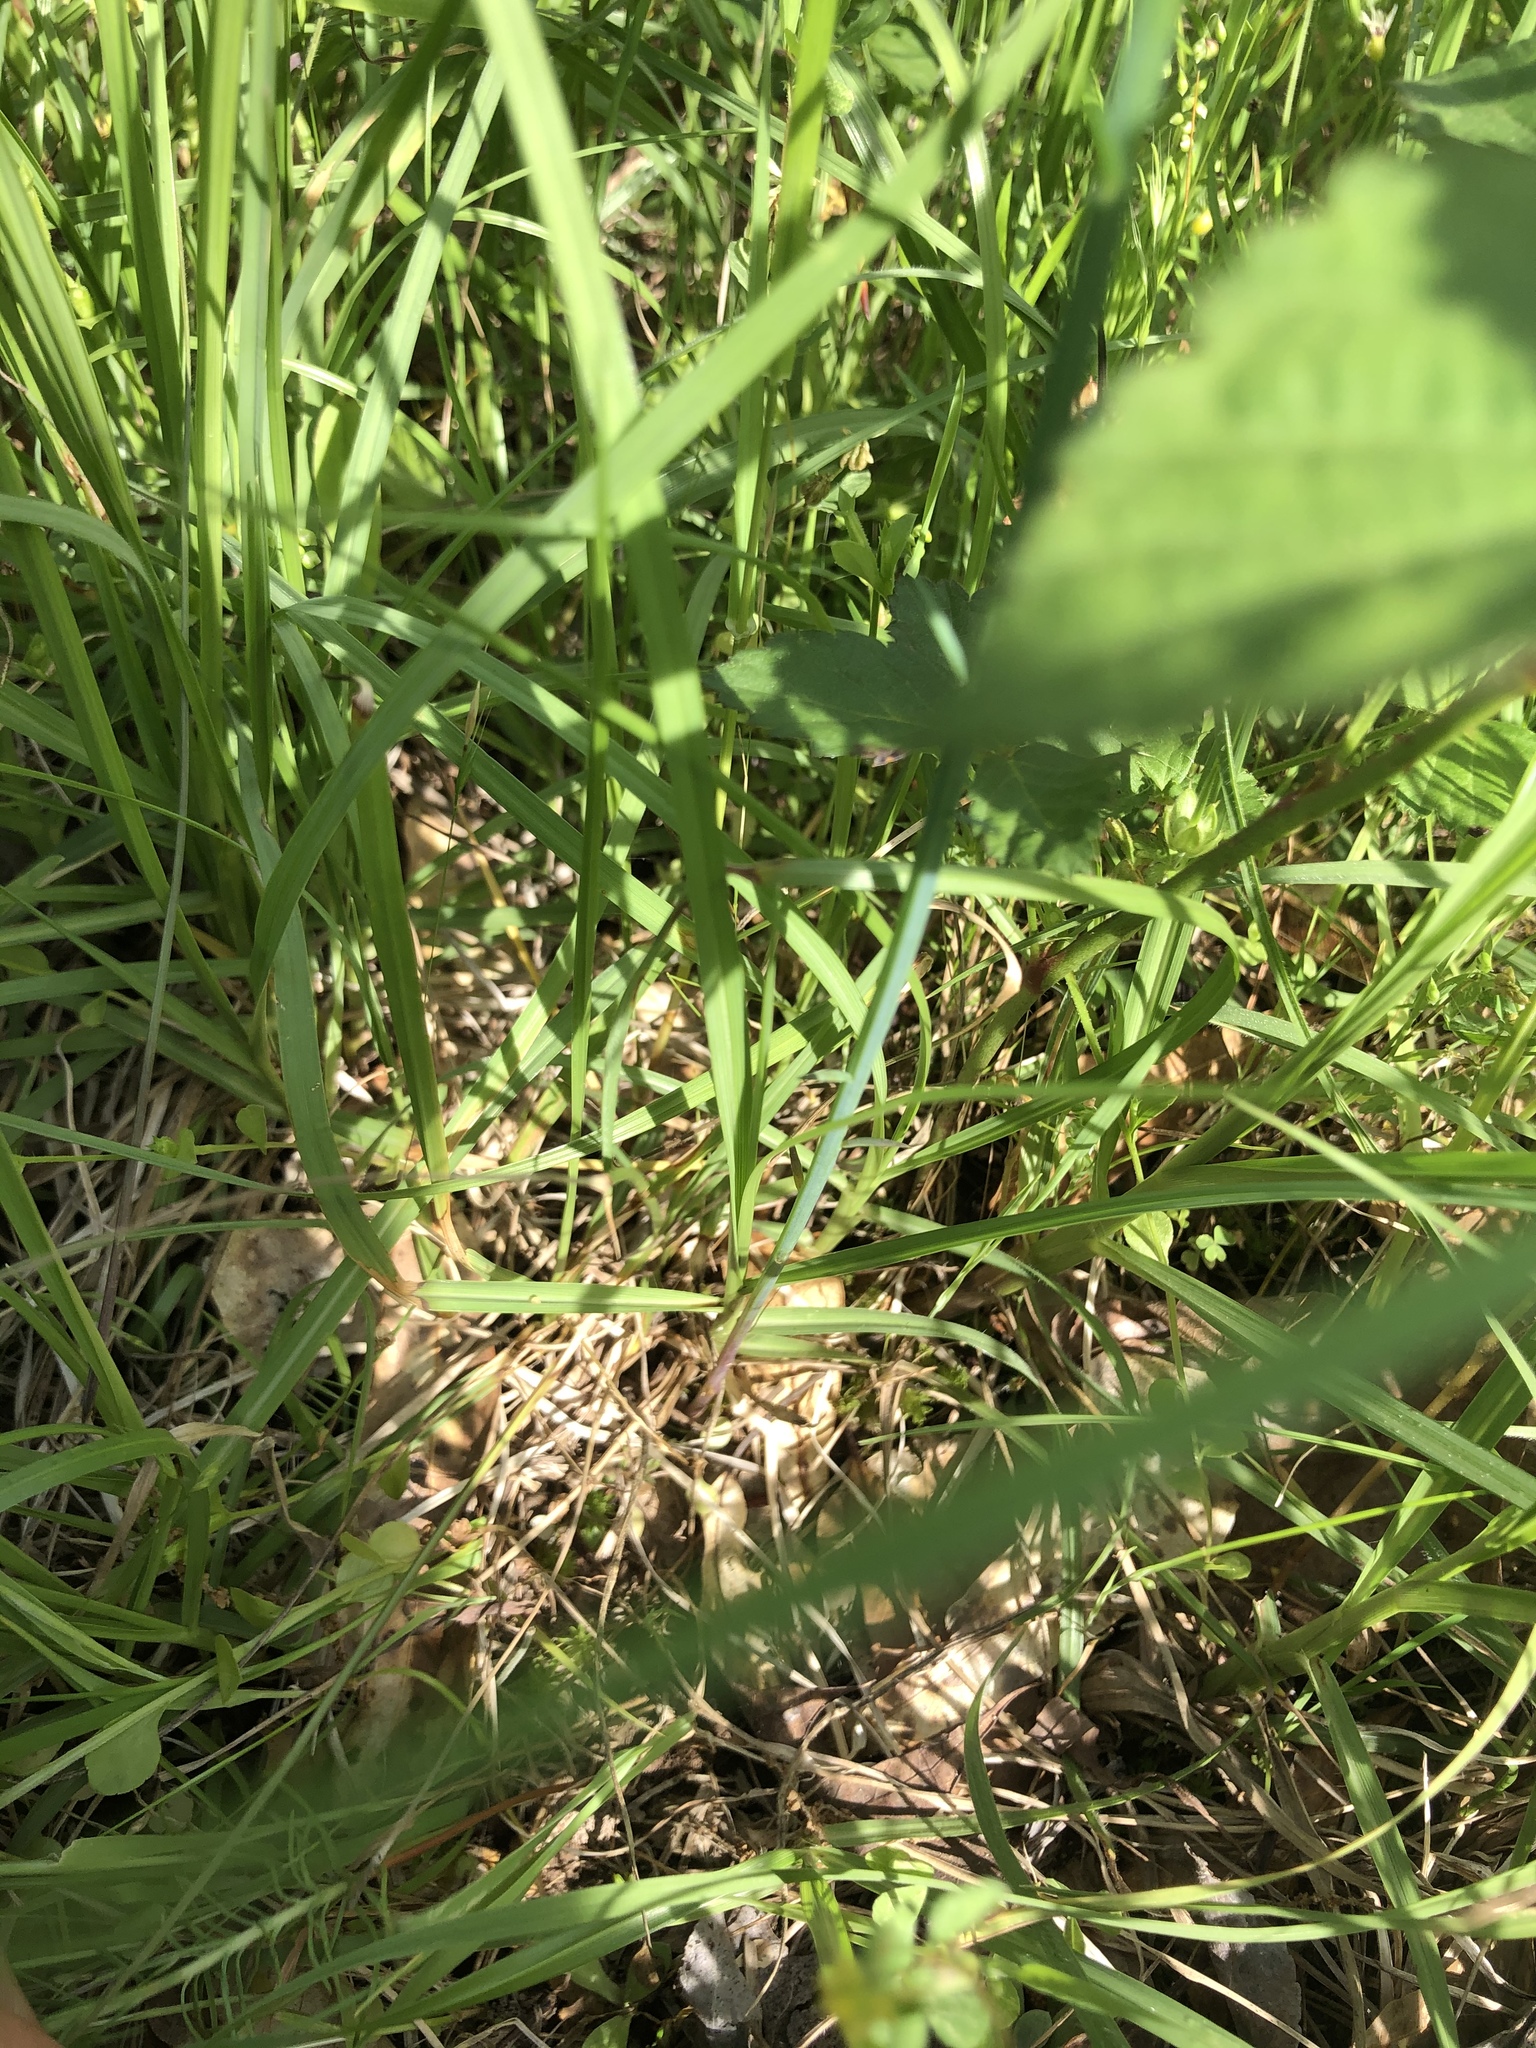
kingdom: Plantae
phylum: Tracheophyta
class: Magnoliopsida
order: Fabales
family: Polygalaceae
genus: Polygala
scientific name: Polygala incarnata
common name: Pink milkwort
